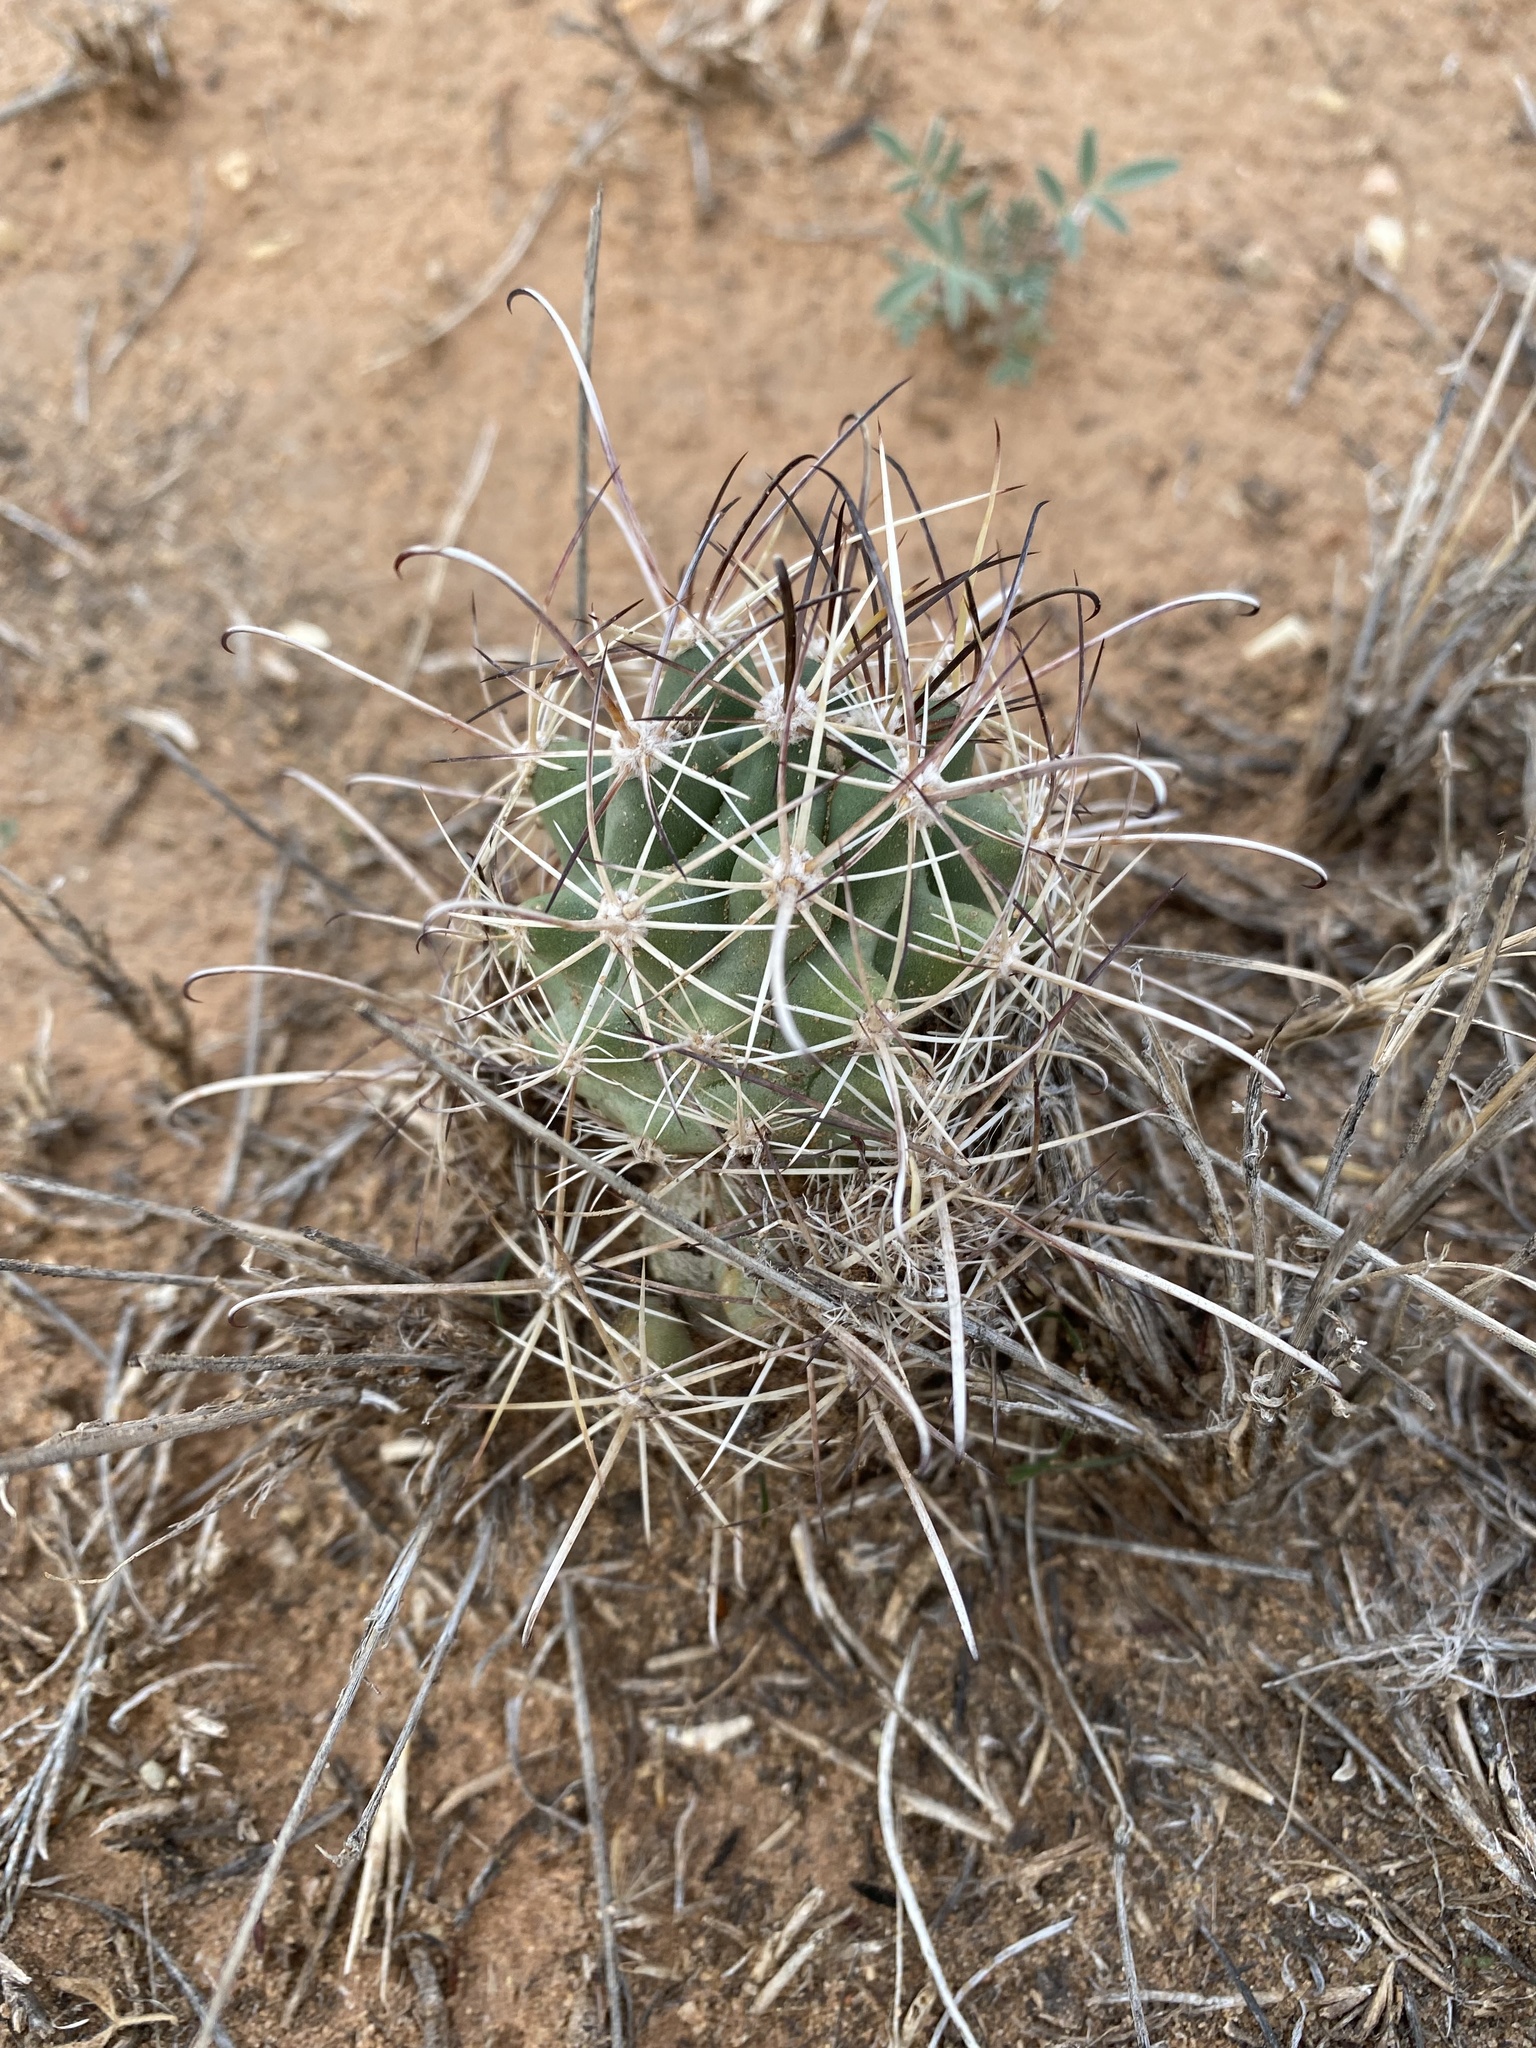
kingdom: Plantae
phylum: Tracheophyta
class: Magnoliopsida
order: Caryophyllales
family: Cactaceae
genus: Sclerocactus
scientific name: Sclerocactus parviflorus
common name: Small-flower fishhook cactus
